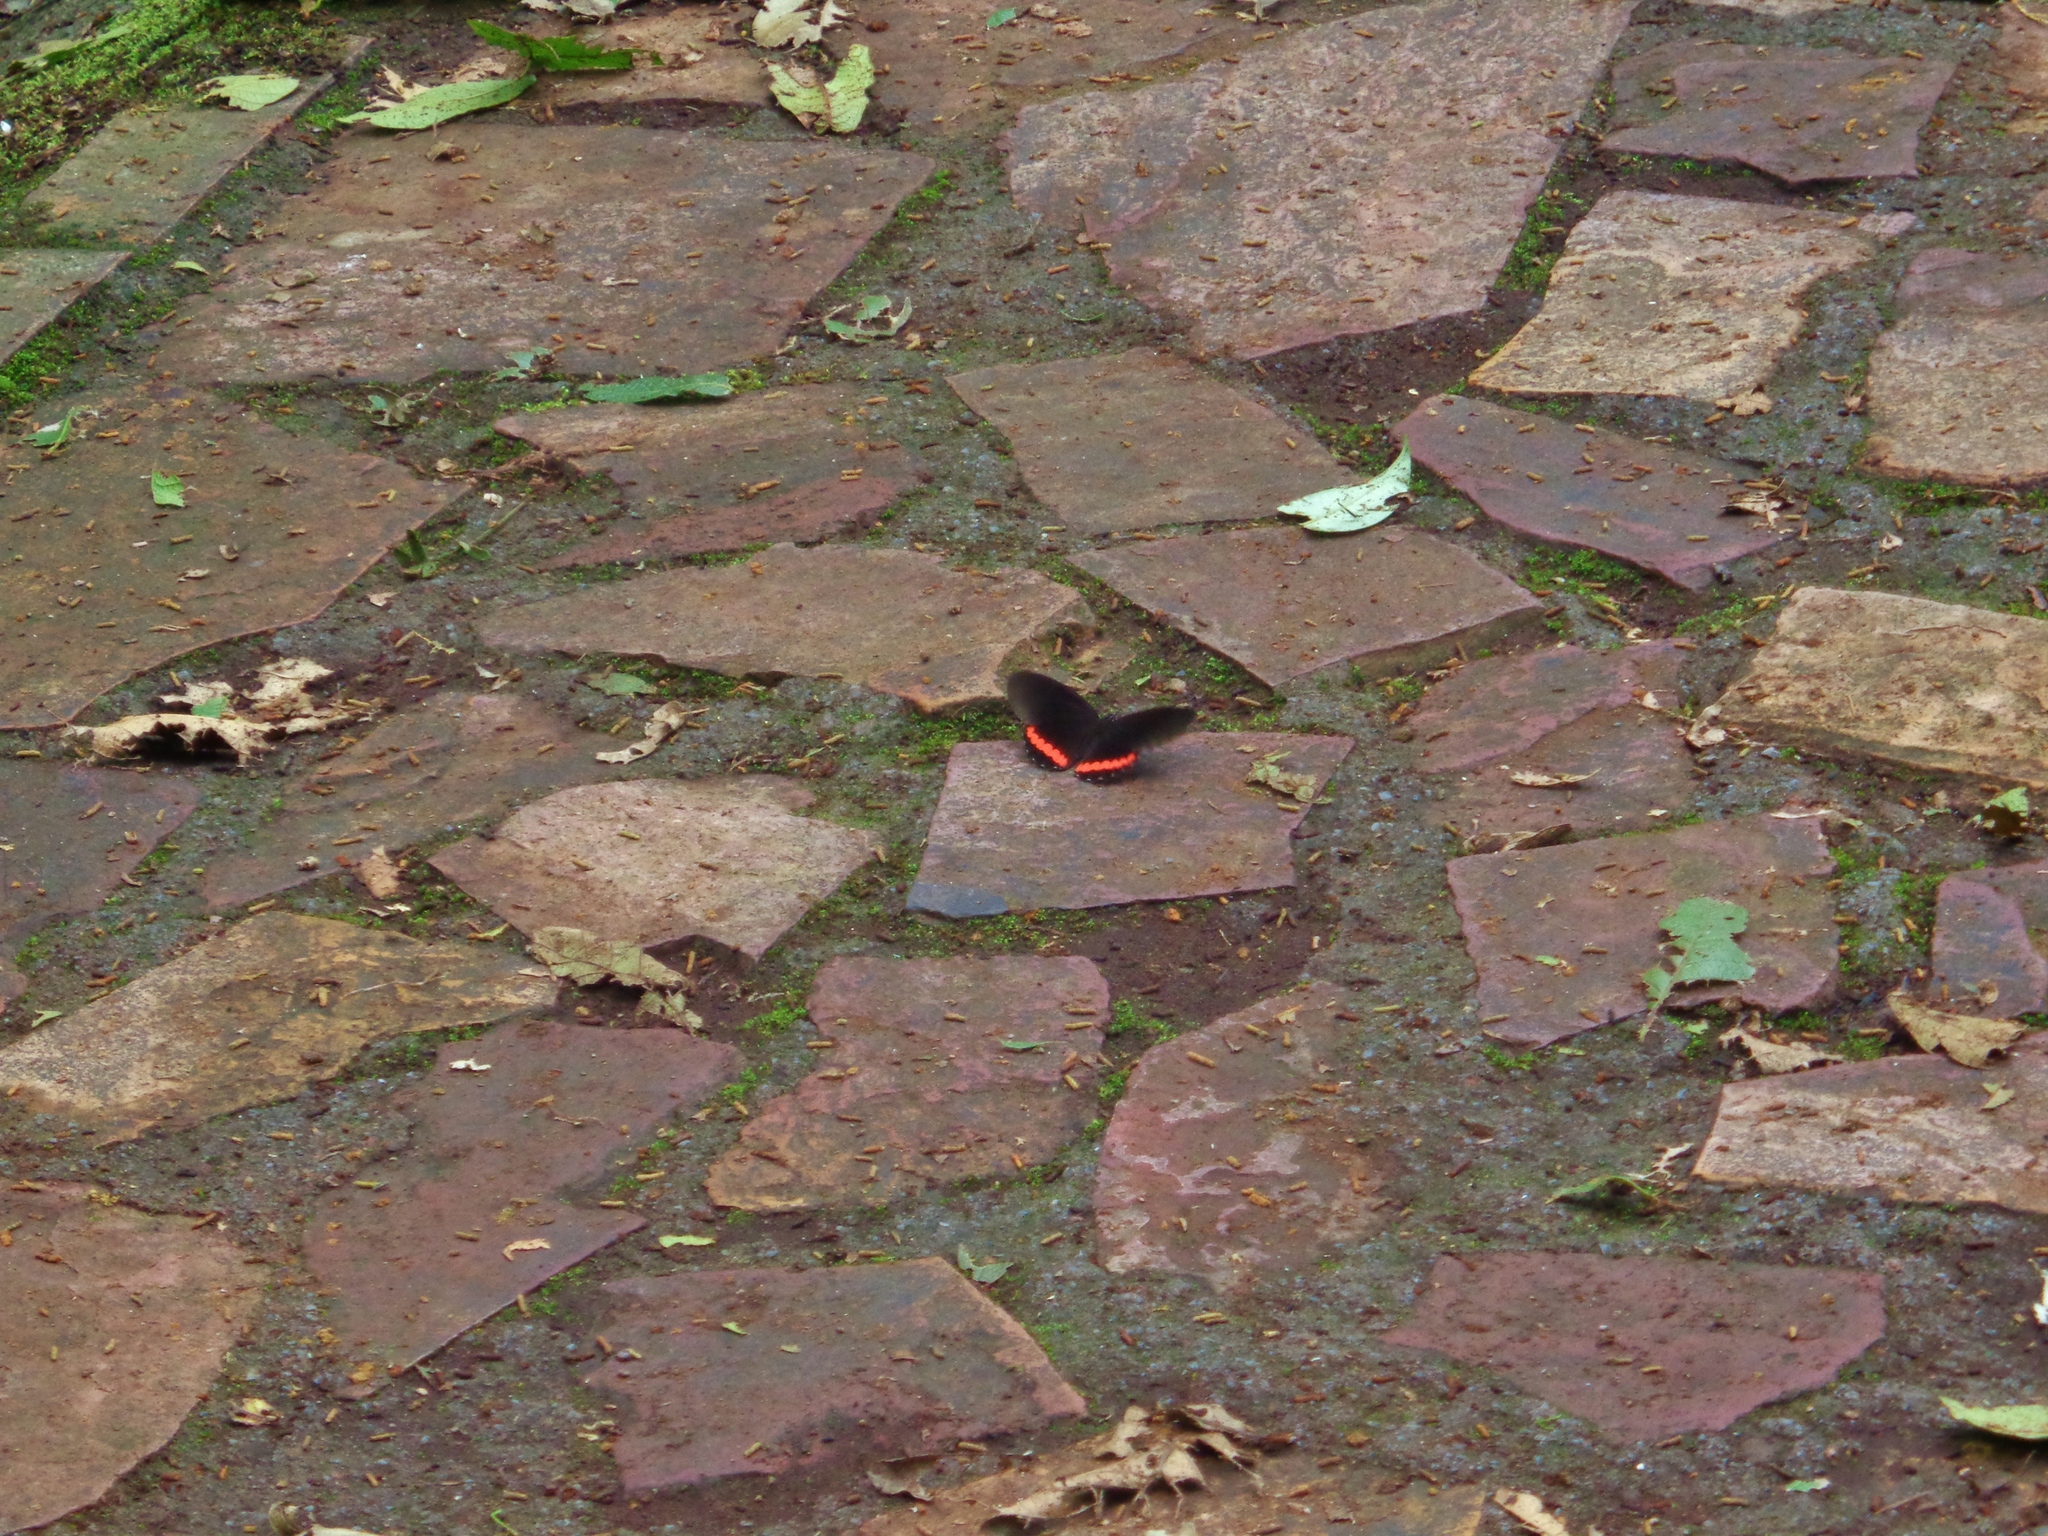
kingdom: Animalia
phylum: Arthropoda
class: Insecta
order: Lepidoptera
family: Nymphalidae
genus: Biblis
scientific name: Biblis aganisa
